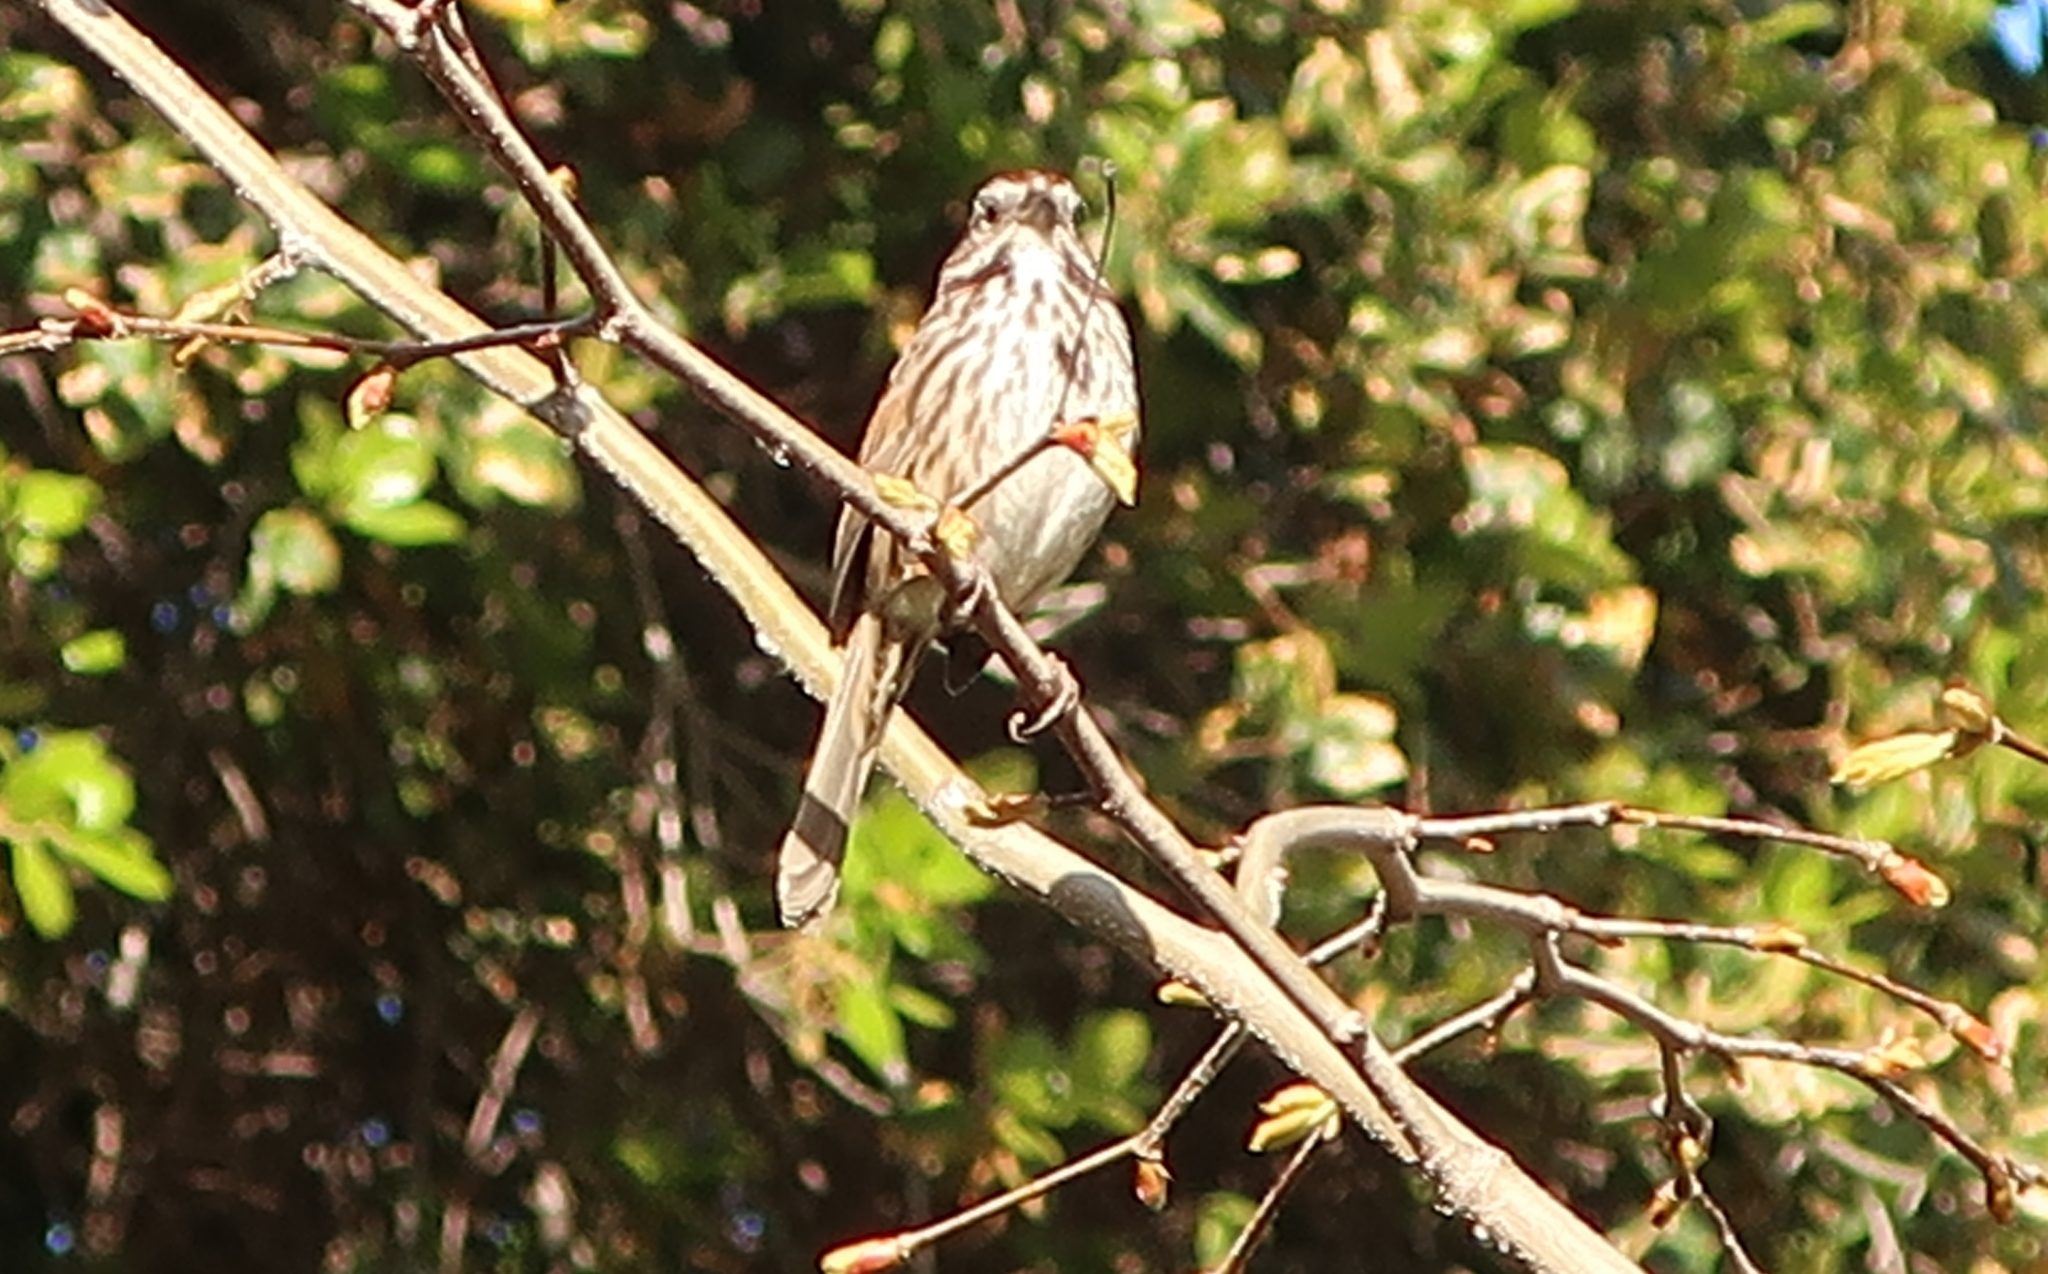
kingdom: Animalia
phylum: Chordata
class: Aves
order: Passeriformes
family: Passerellidae
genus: Melospiza
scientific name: Melospiza melodia
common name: Song sparrow
